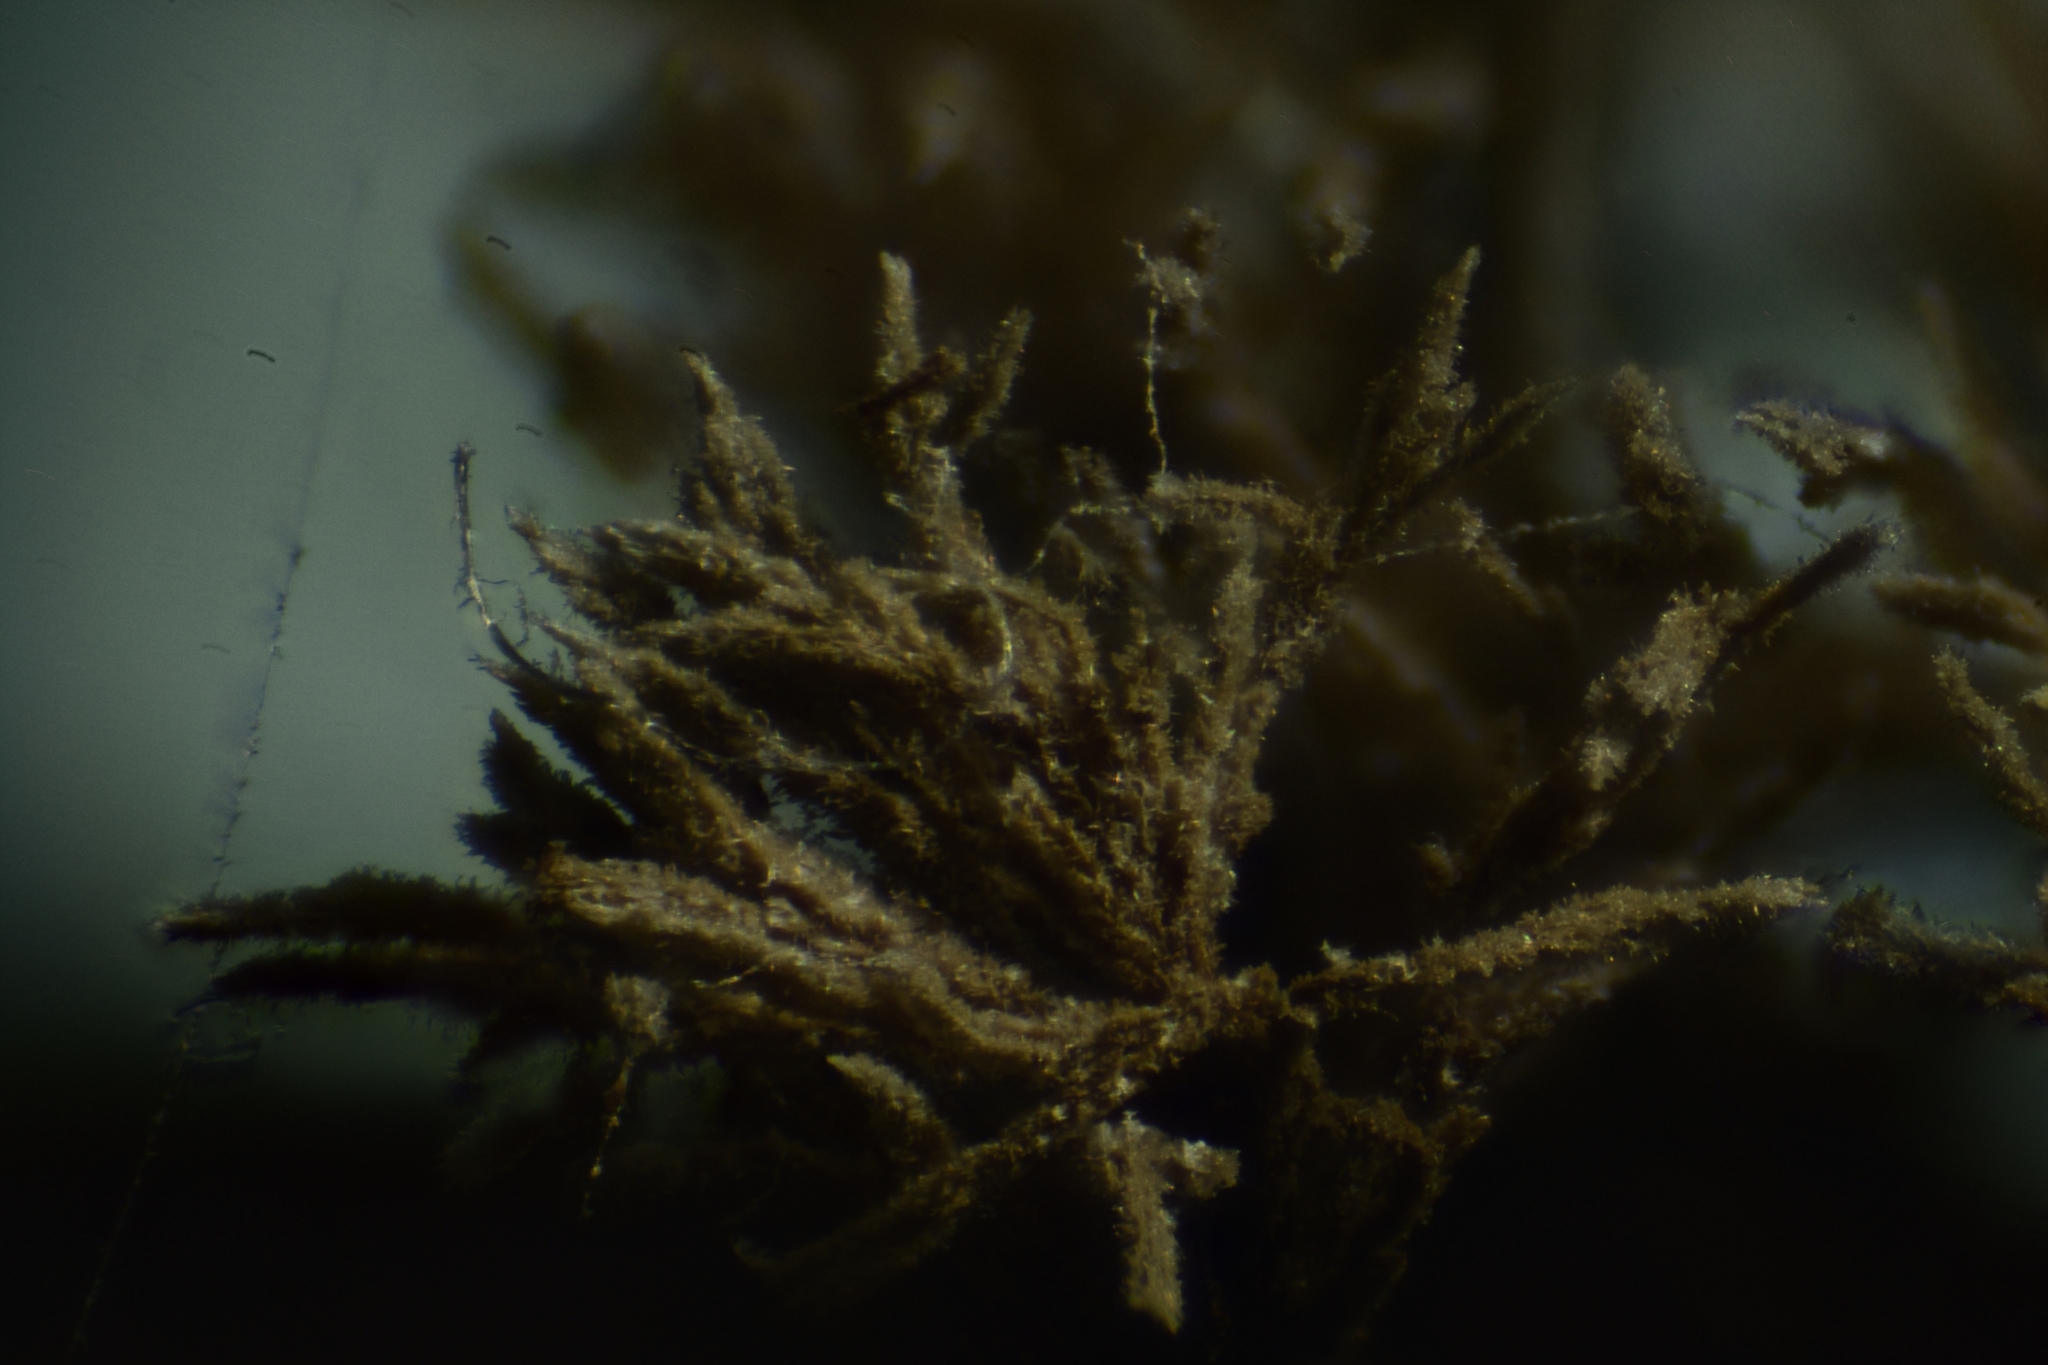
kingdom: Fungi
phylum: Ascomycota
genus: Harpographium
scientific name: Harpographium fasciculatum
